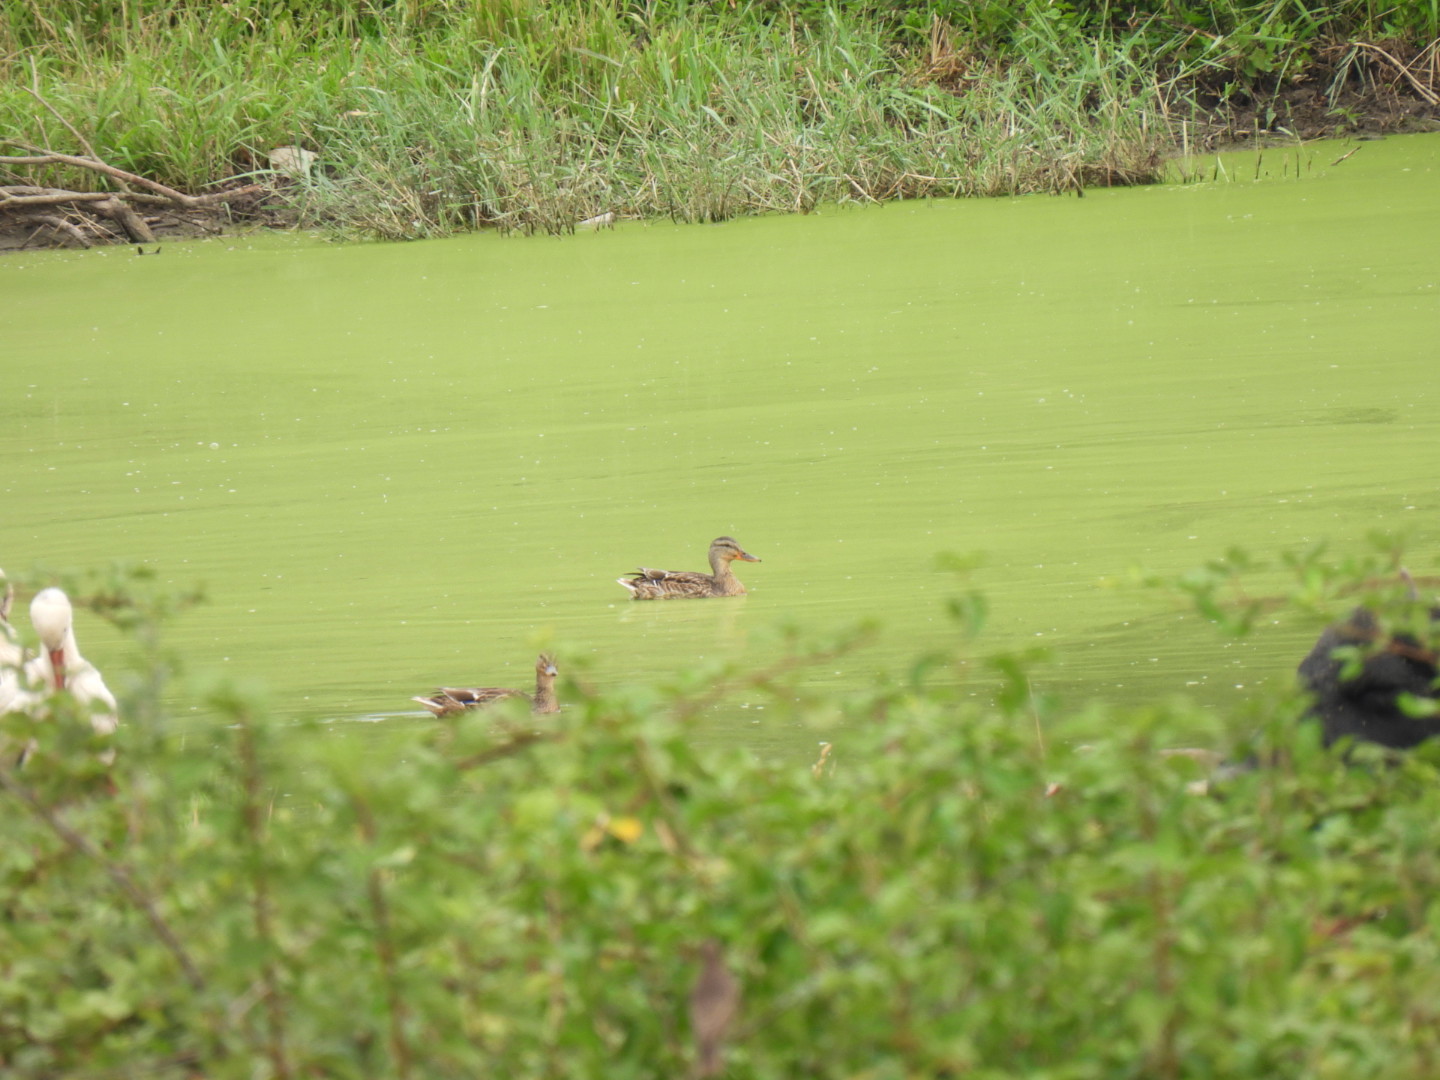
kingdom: Animalia
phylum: Chordata
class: Aves
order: Anseriformes
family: Anatidae
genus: Anas
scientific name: Anas platyrhynchos
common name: Mallard
